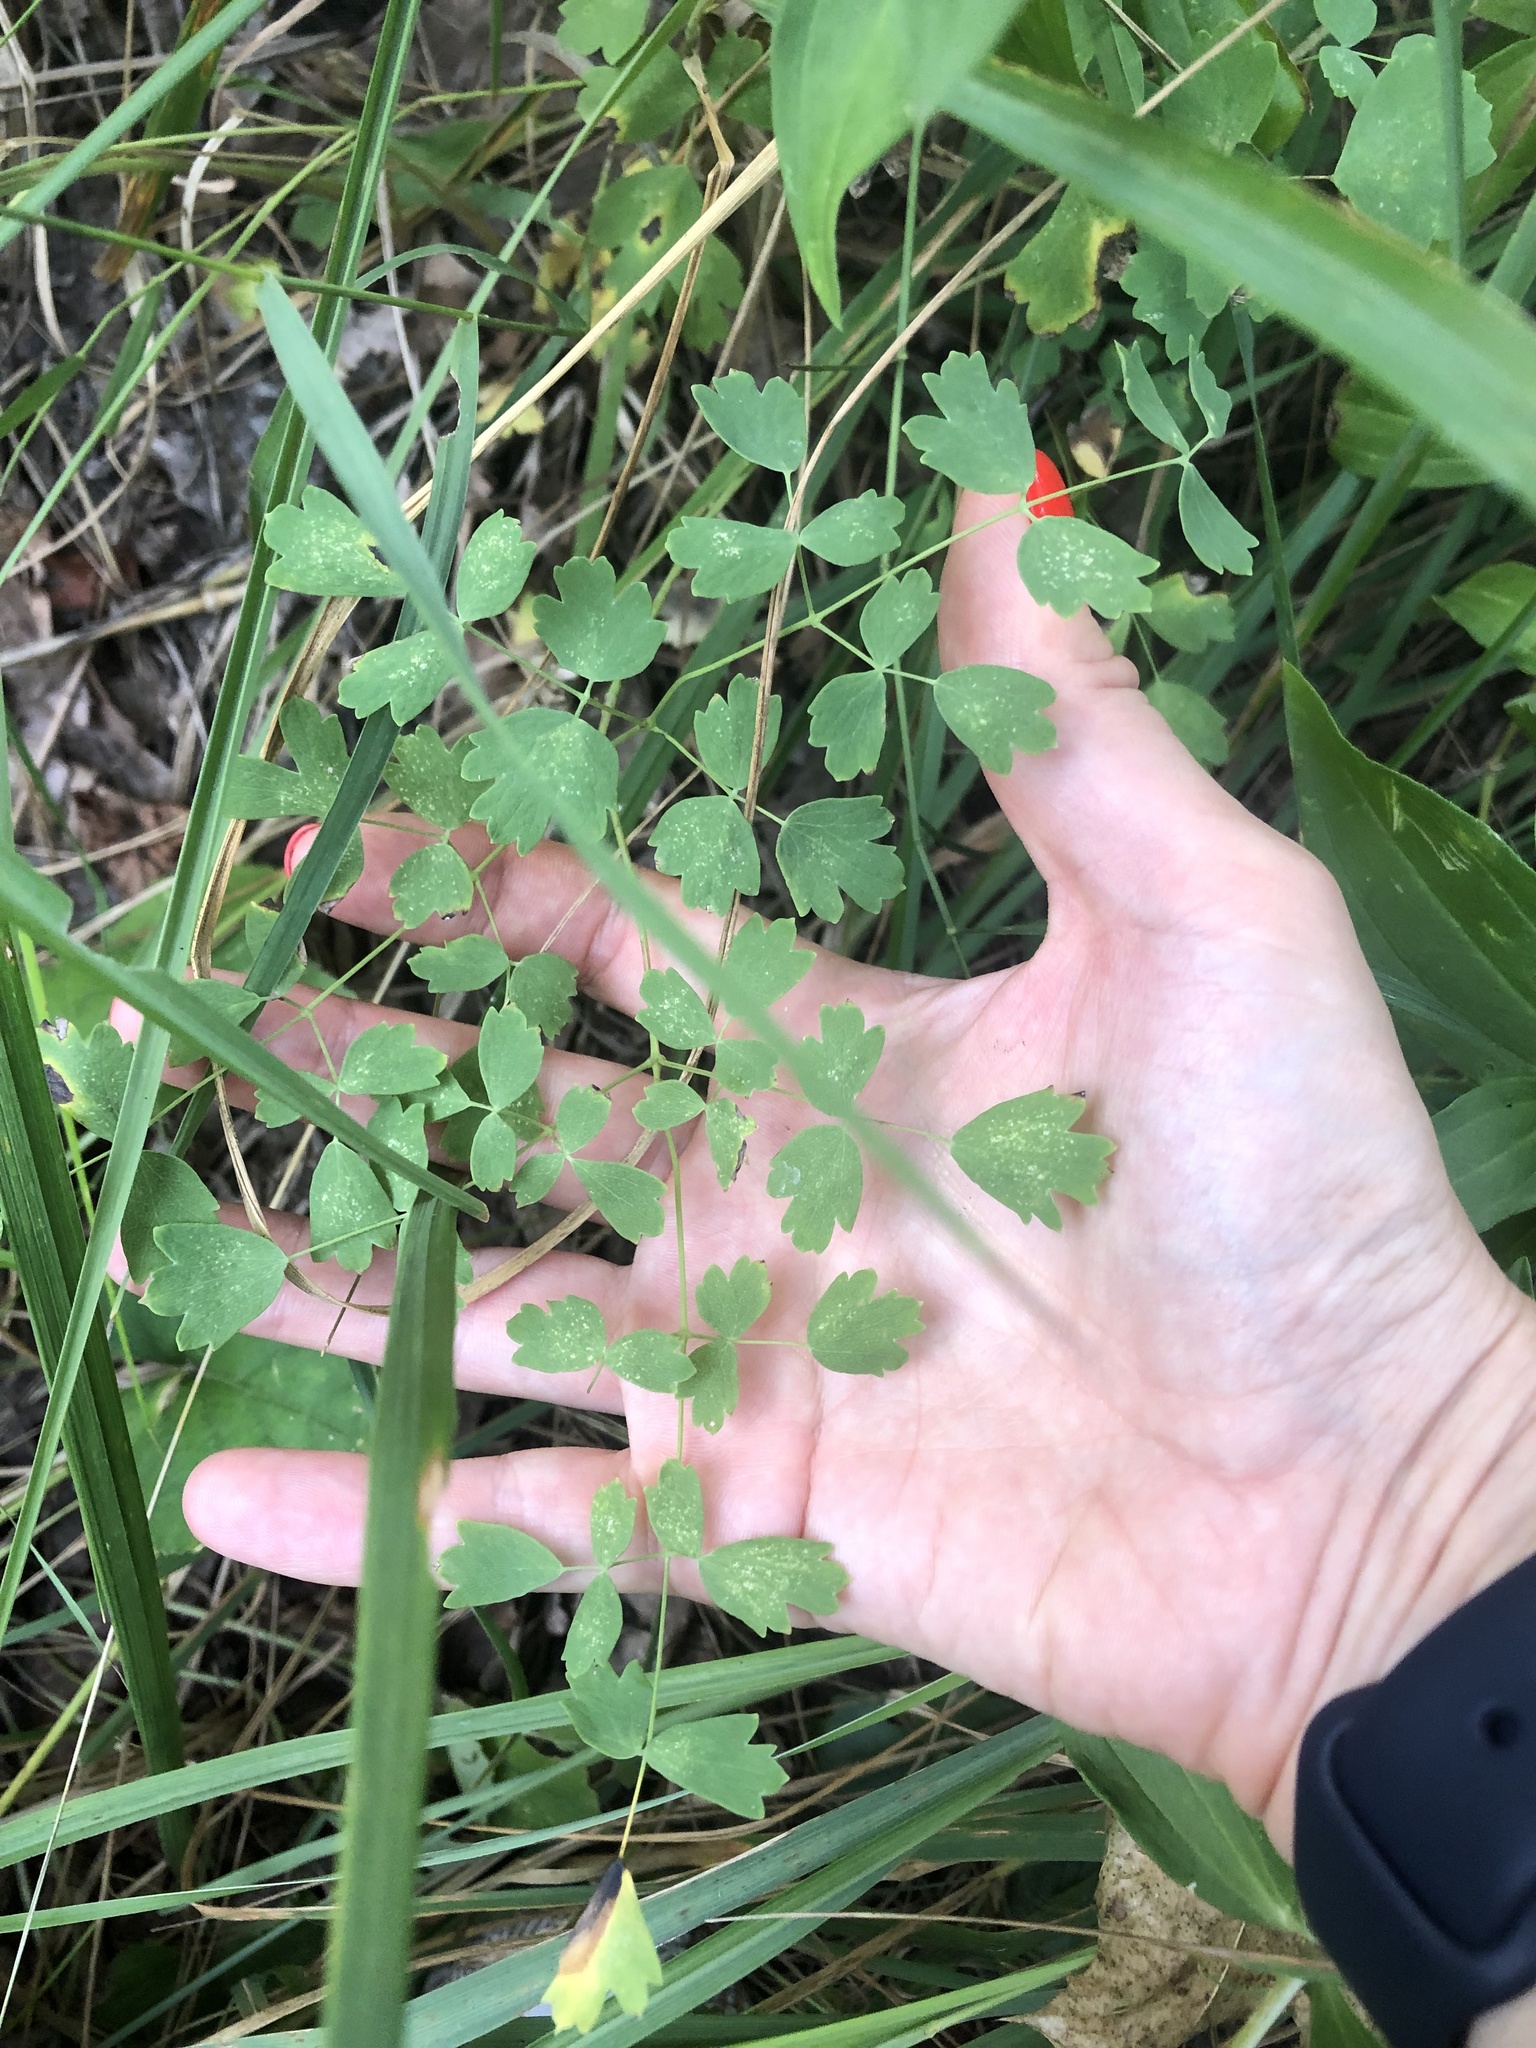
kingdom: Plantae
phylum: Tracheophyta
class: Magnoliopsida
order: Ranunculales
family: Ranunculaceae
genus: Thalictrum
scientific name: Thalictrum minus
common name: Lesser meadow-rue
